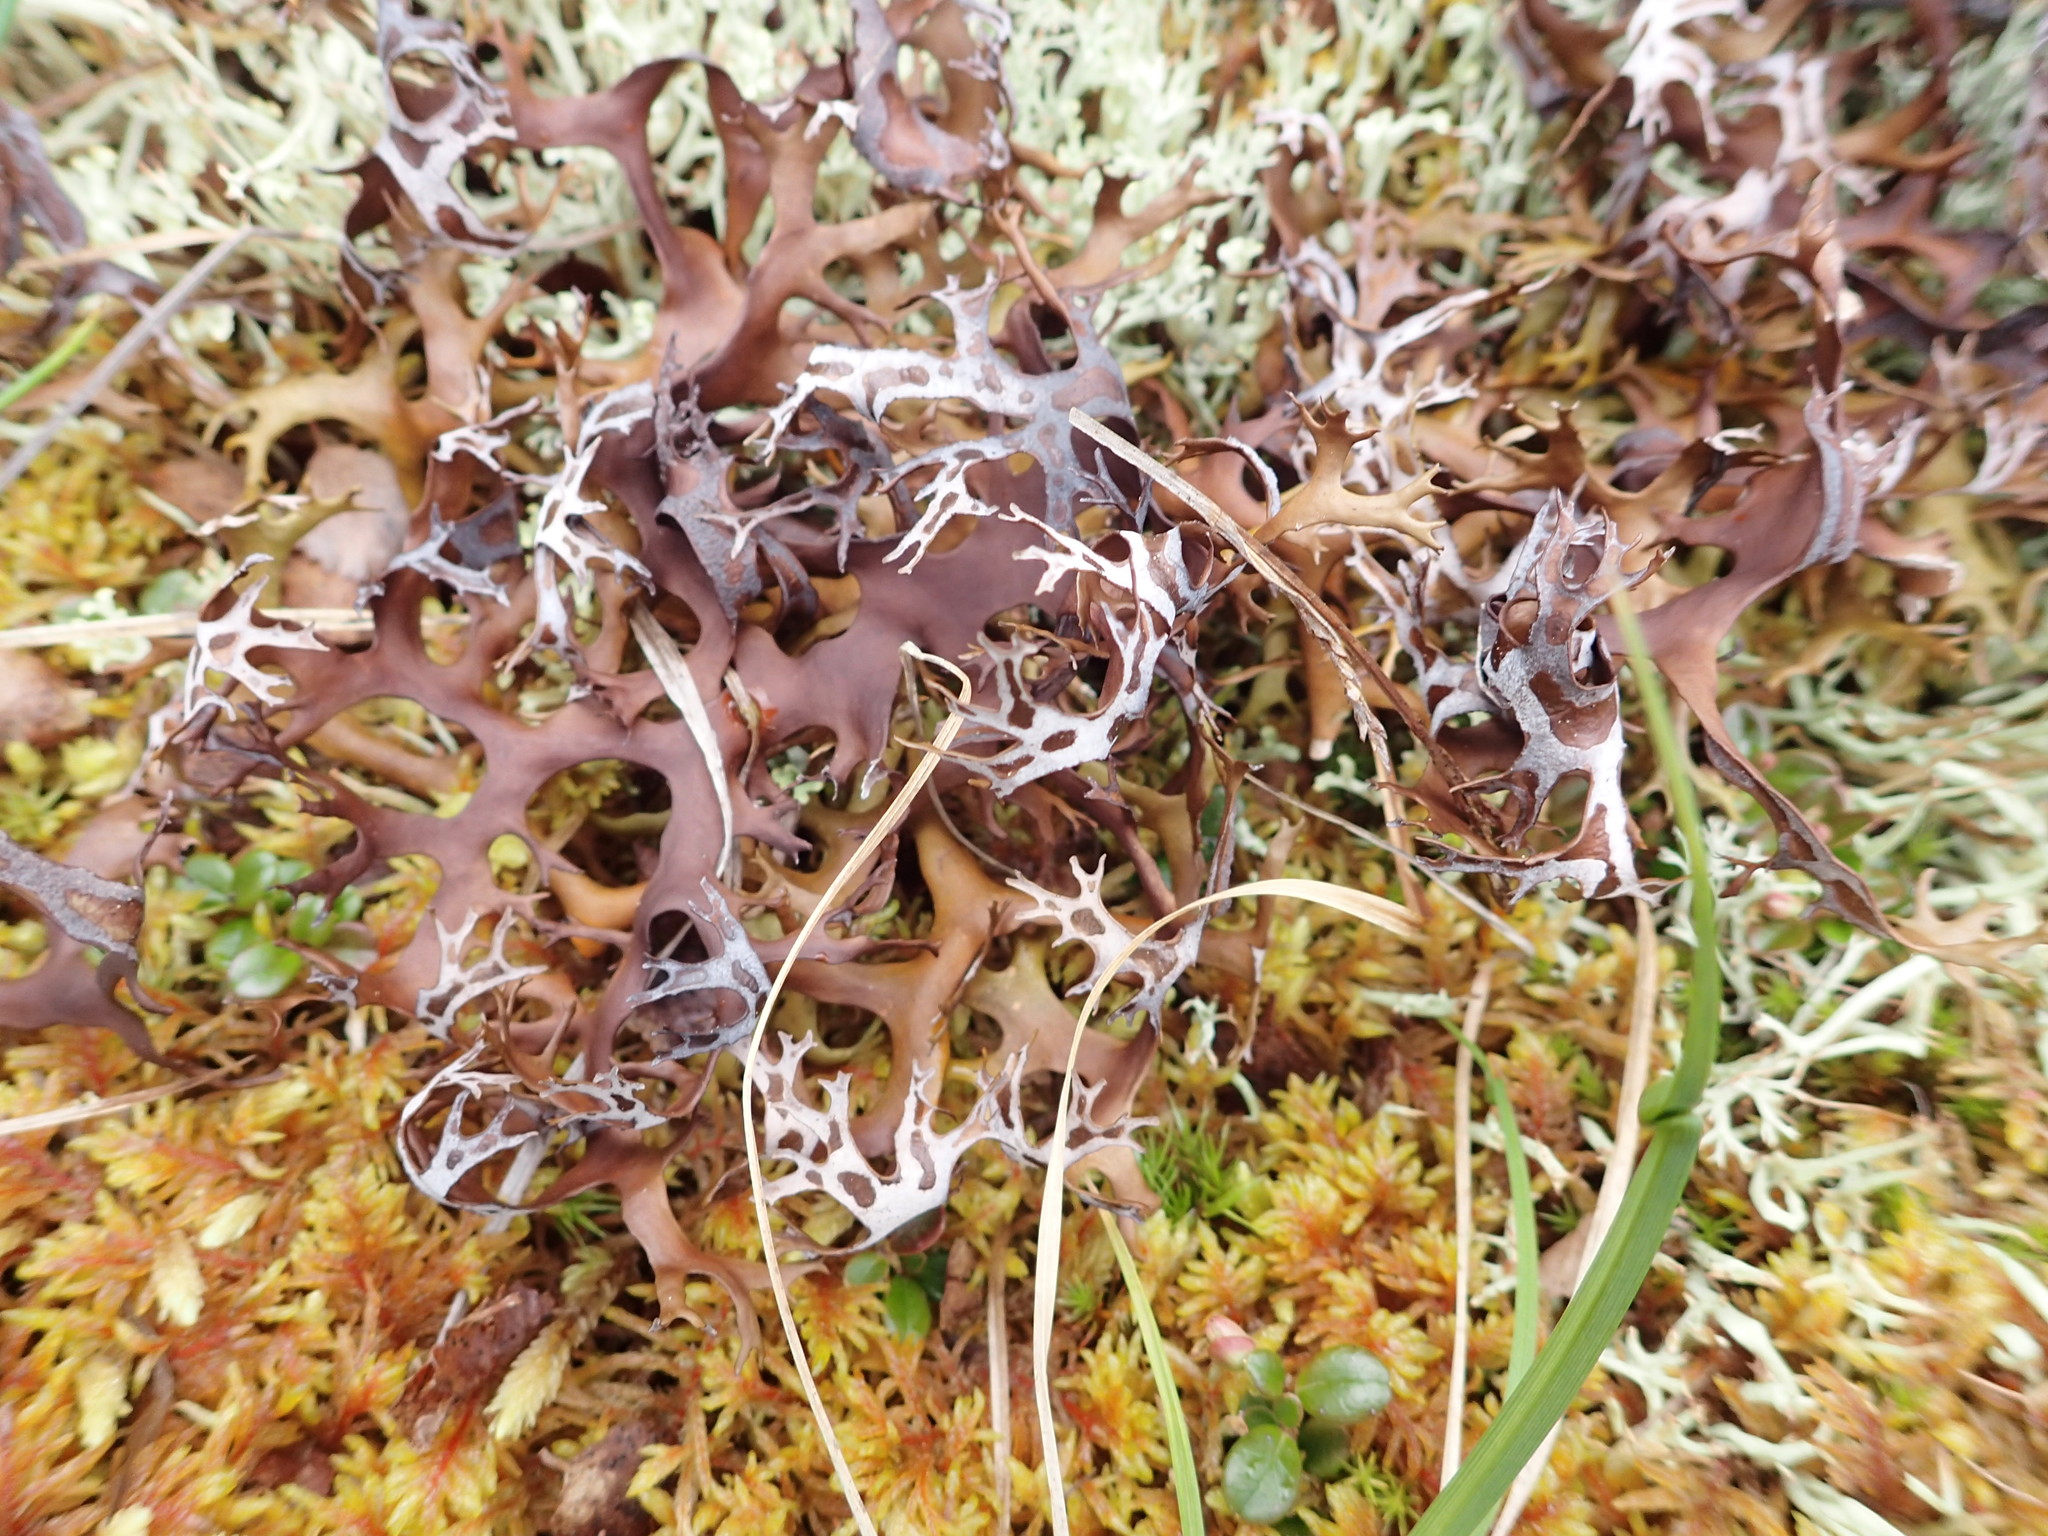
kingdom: Fungi
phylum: Ascomycota
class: Lecanoromycetes
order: Lecanorales
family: Parmeliaceae
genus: Nephromopsis
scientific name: Nephromopsis richardsonii
